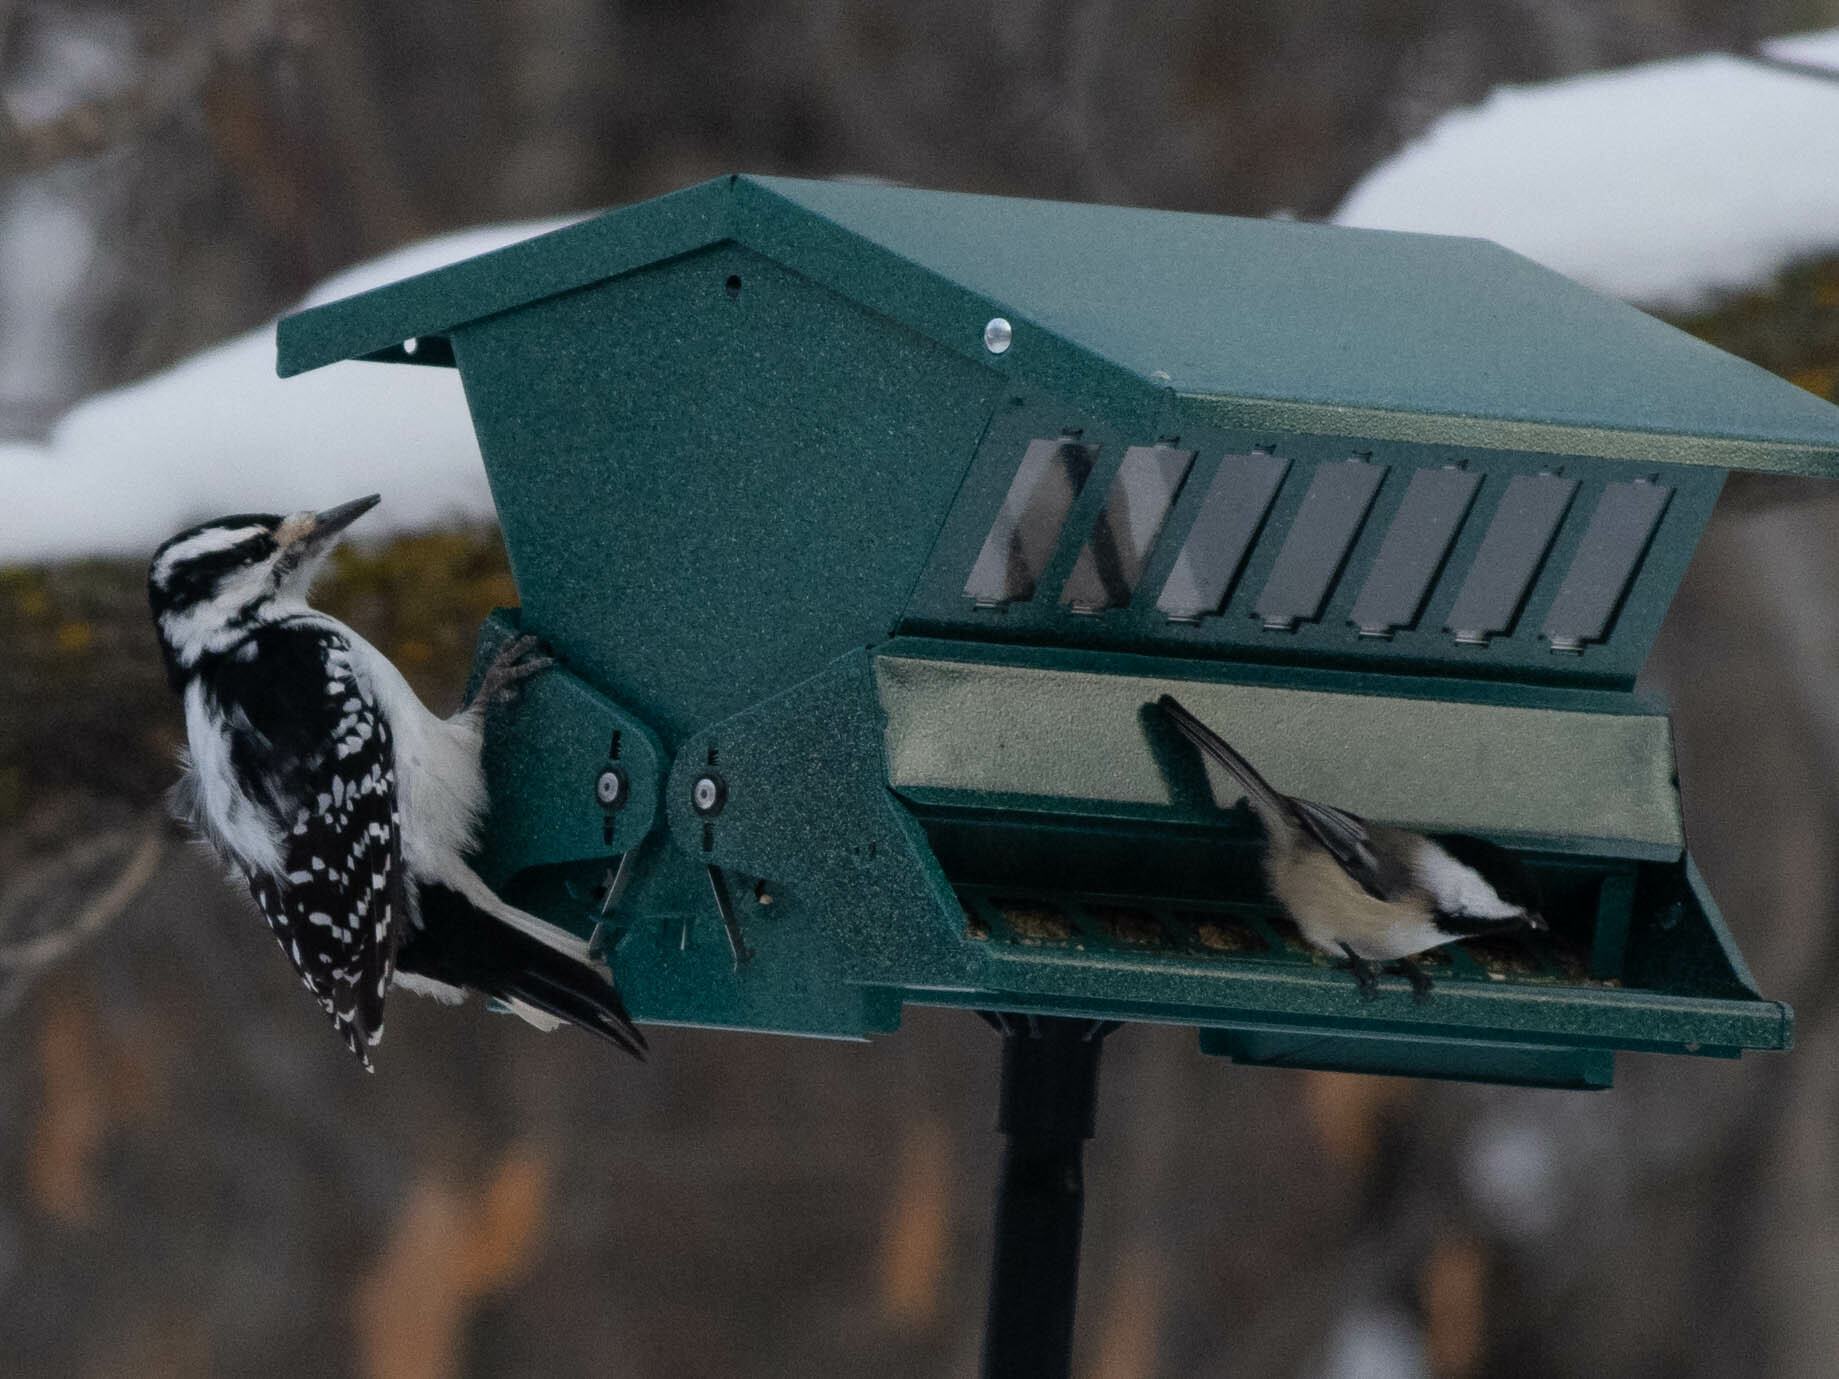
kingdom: Animalia
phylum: Chordata
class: Aves
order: Passeriformes
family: Paridae
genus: Poecile
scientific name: Poecile atricapillus
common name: Black-capped chickadee
